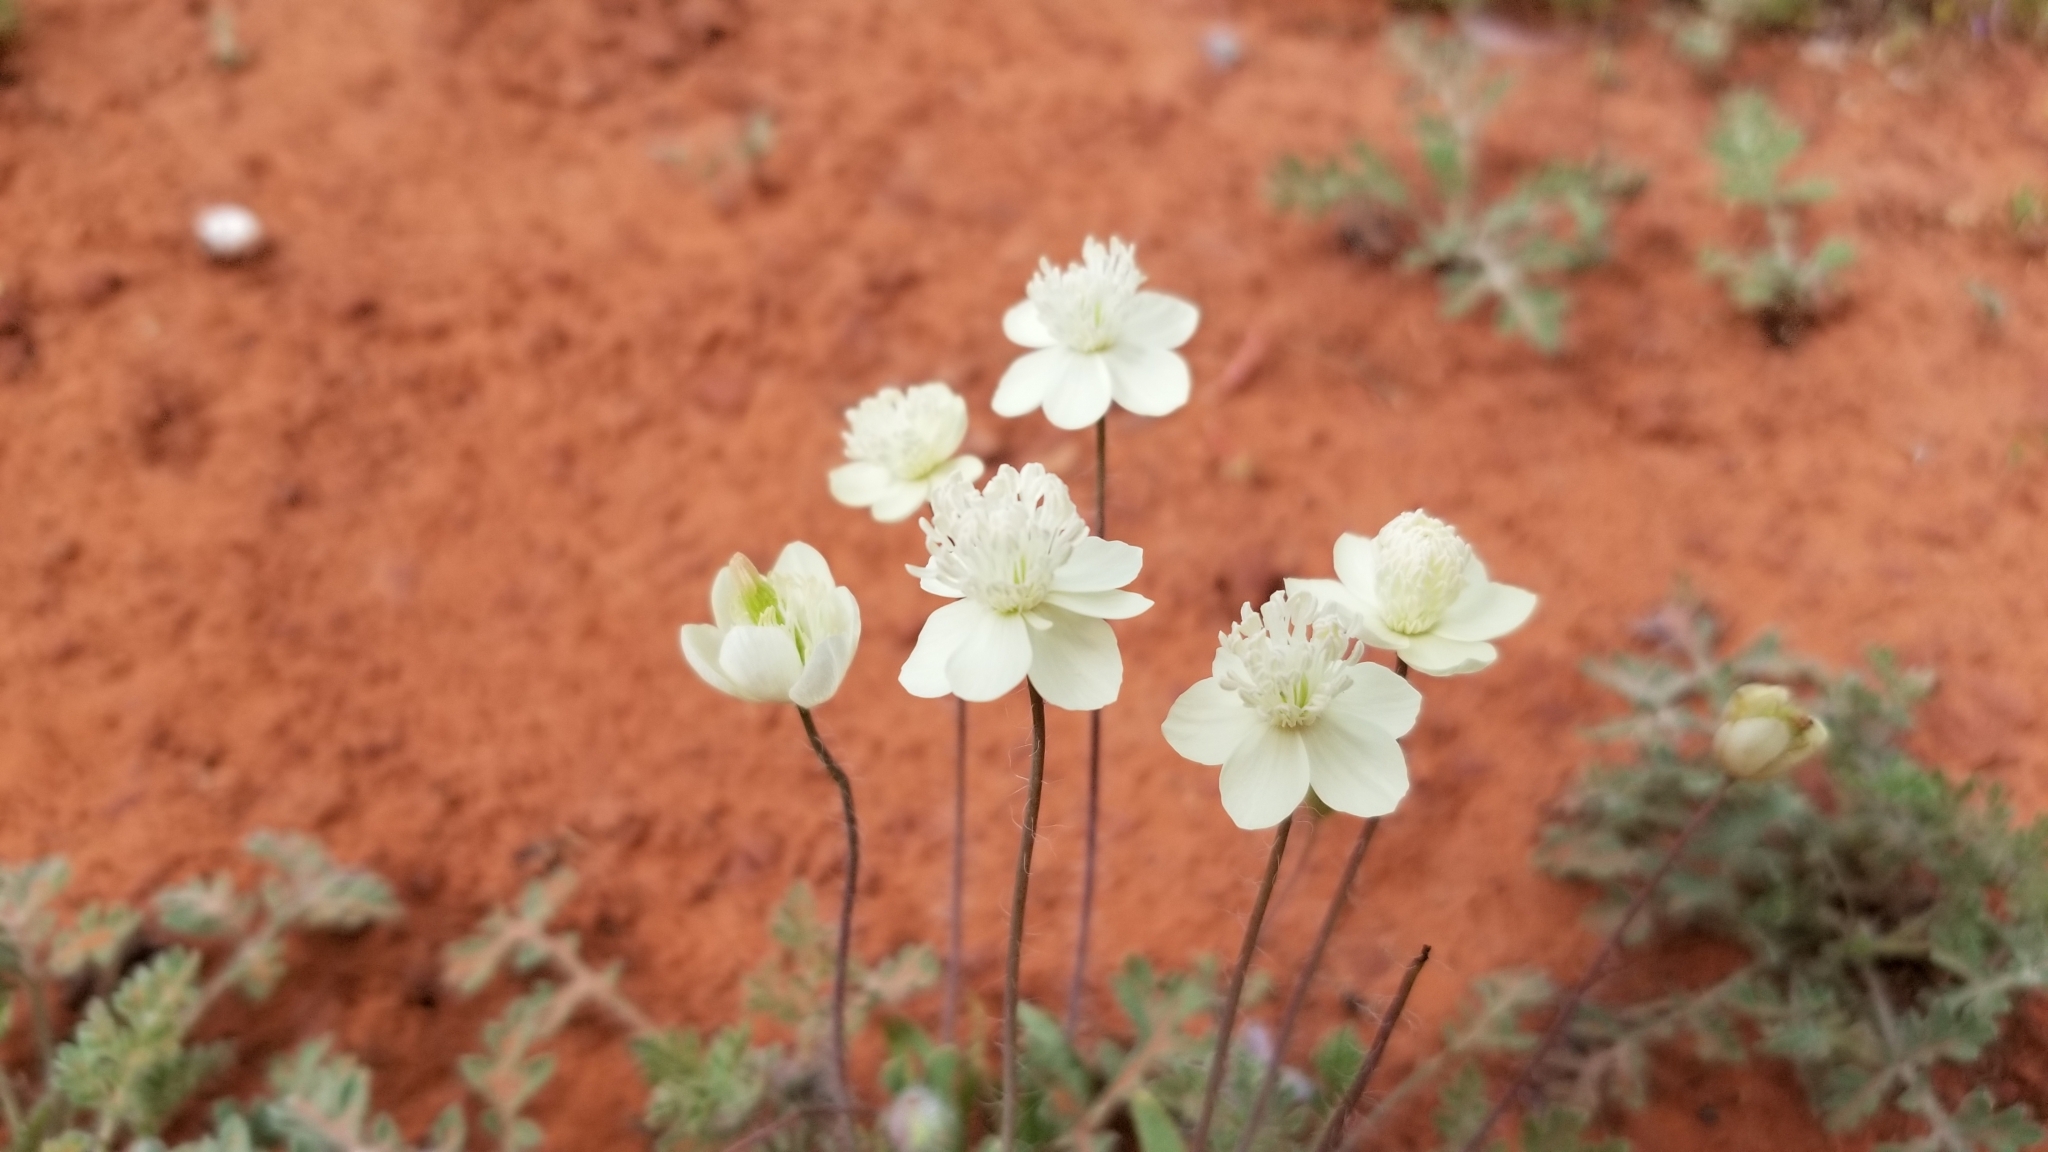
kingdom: Plantae
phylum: Tracheophyta
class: Magnoliopsida
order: Ranunculales
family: Papaveraceae
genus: Platystemon
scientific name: Platystemon californicus
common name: Cream-cups
